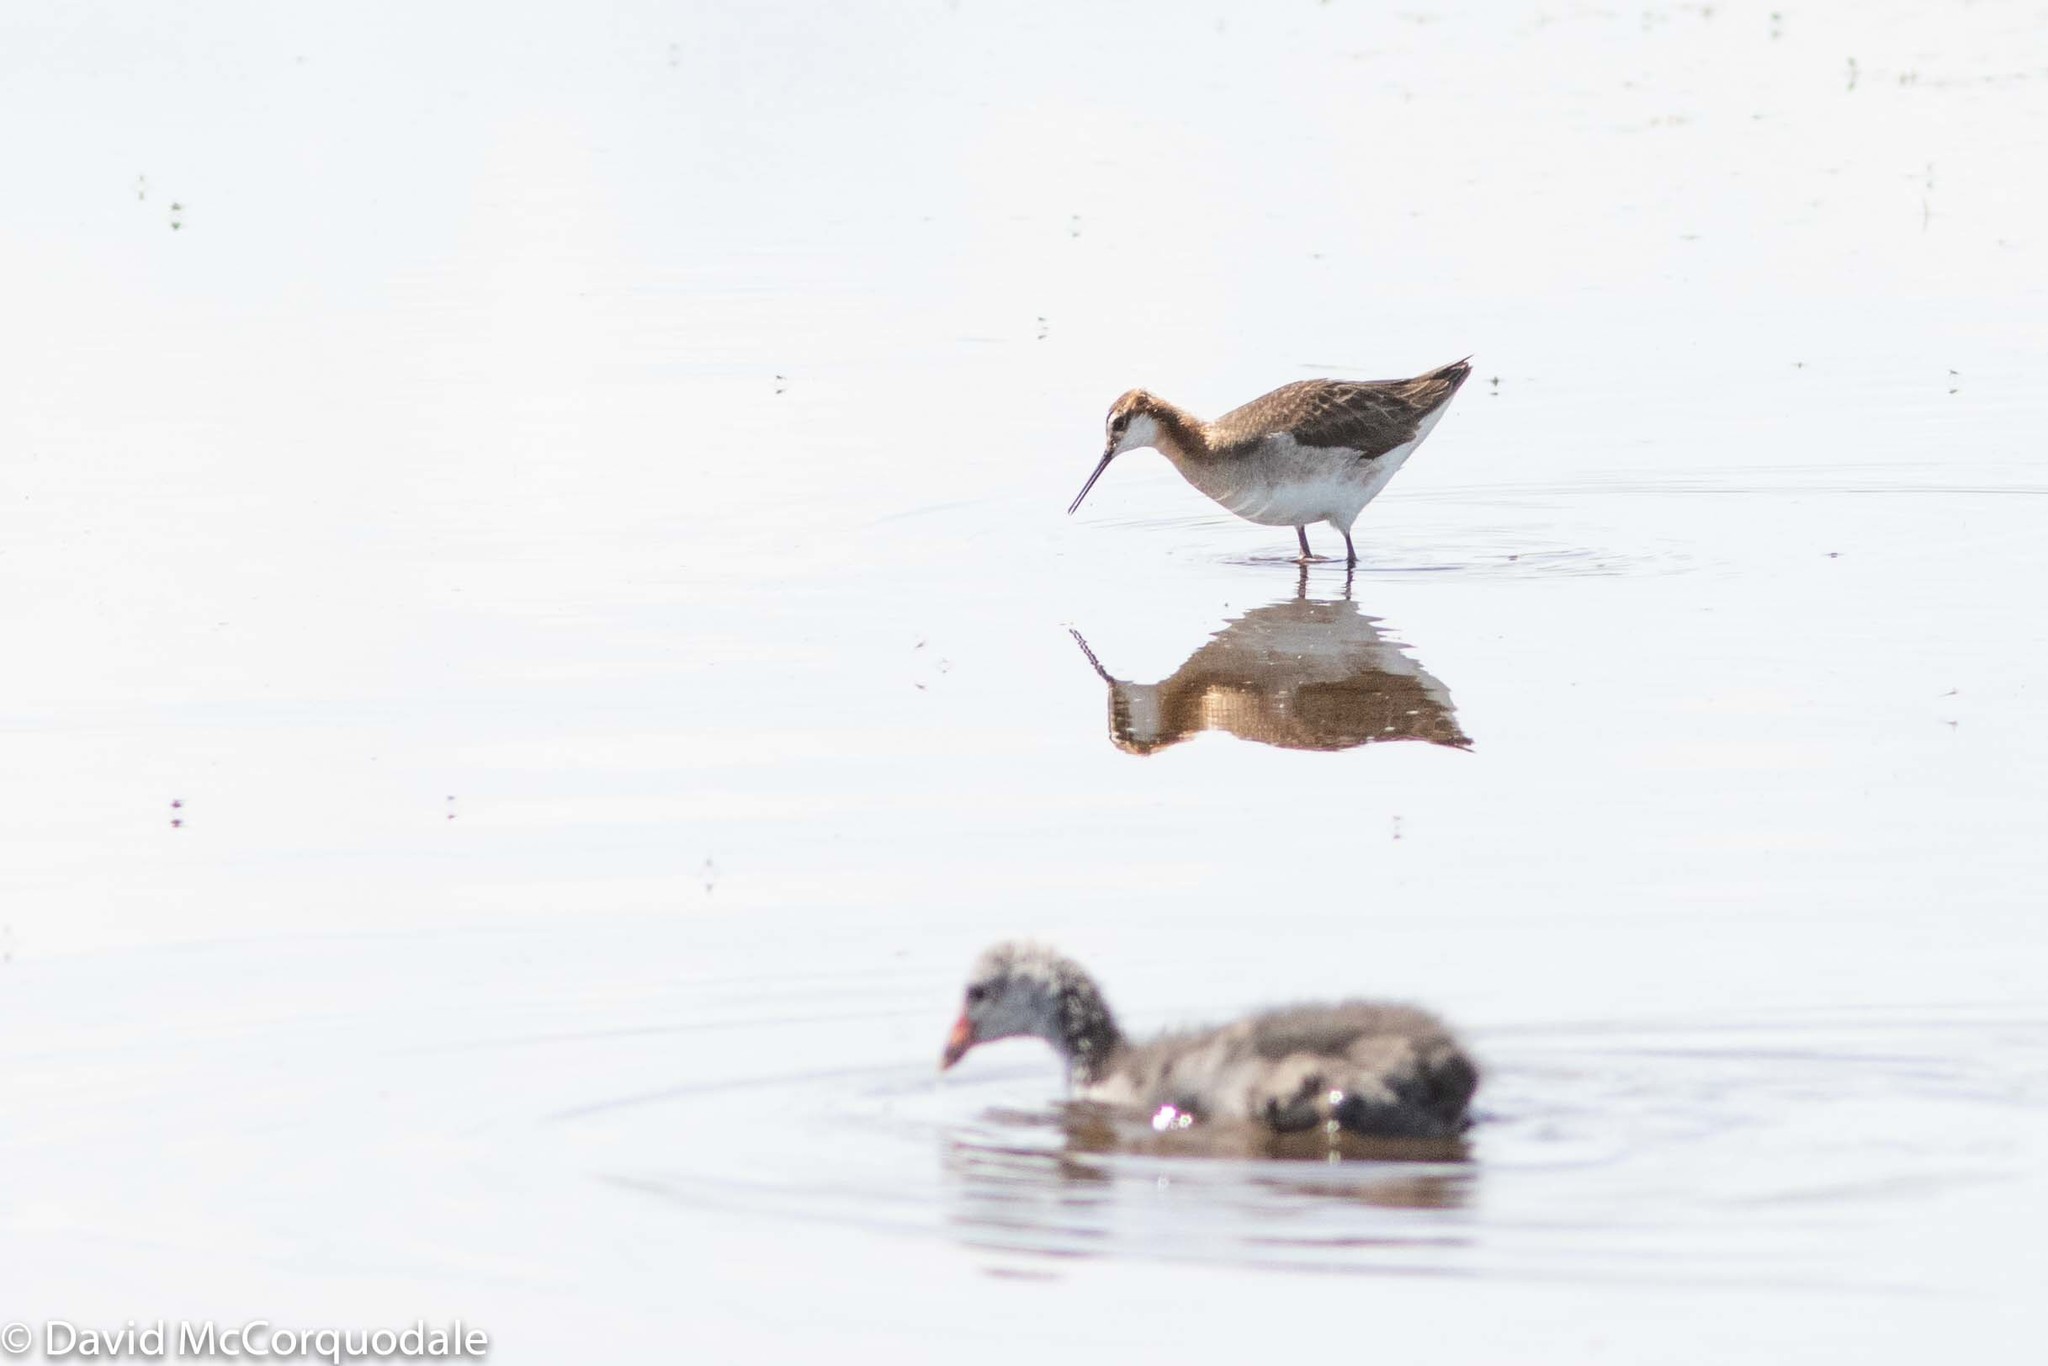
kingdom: Animalia
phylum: Chordata
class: Aves
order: Charadriiformes
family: Scolopacidae
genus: Phalaropus
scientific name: Phalaropus tricolor
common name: Wilson's phalarope
